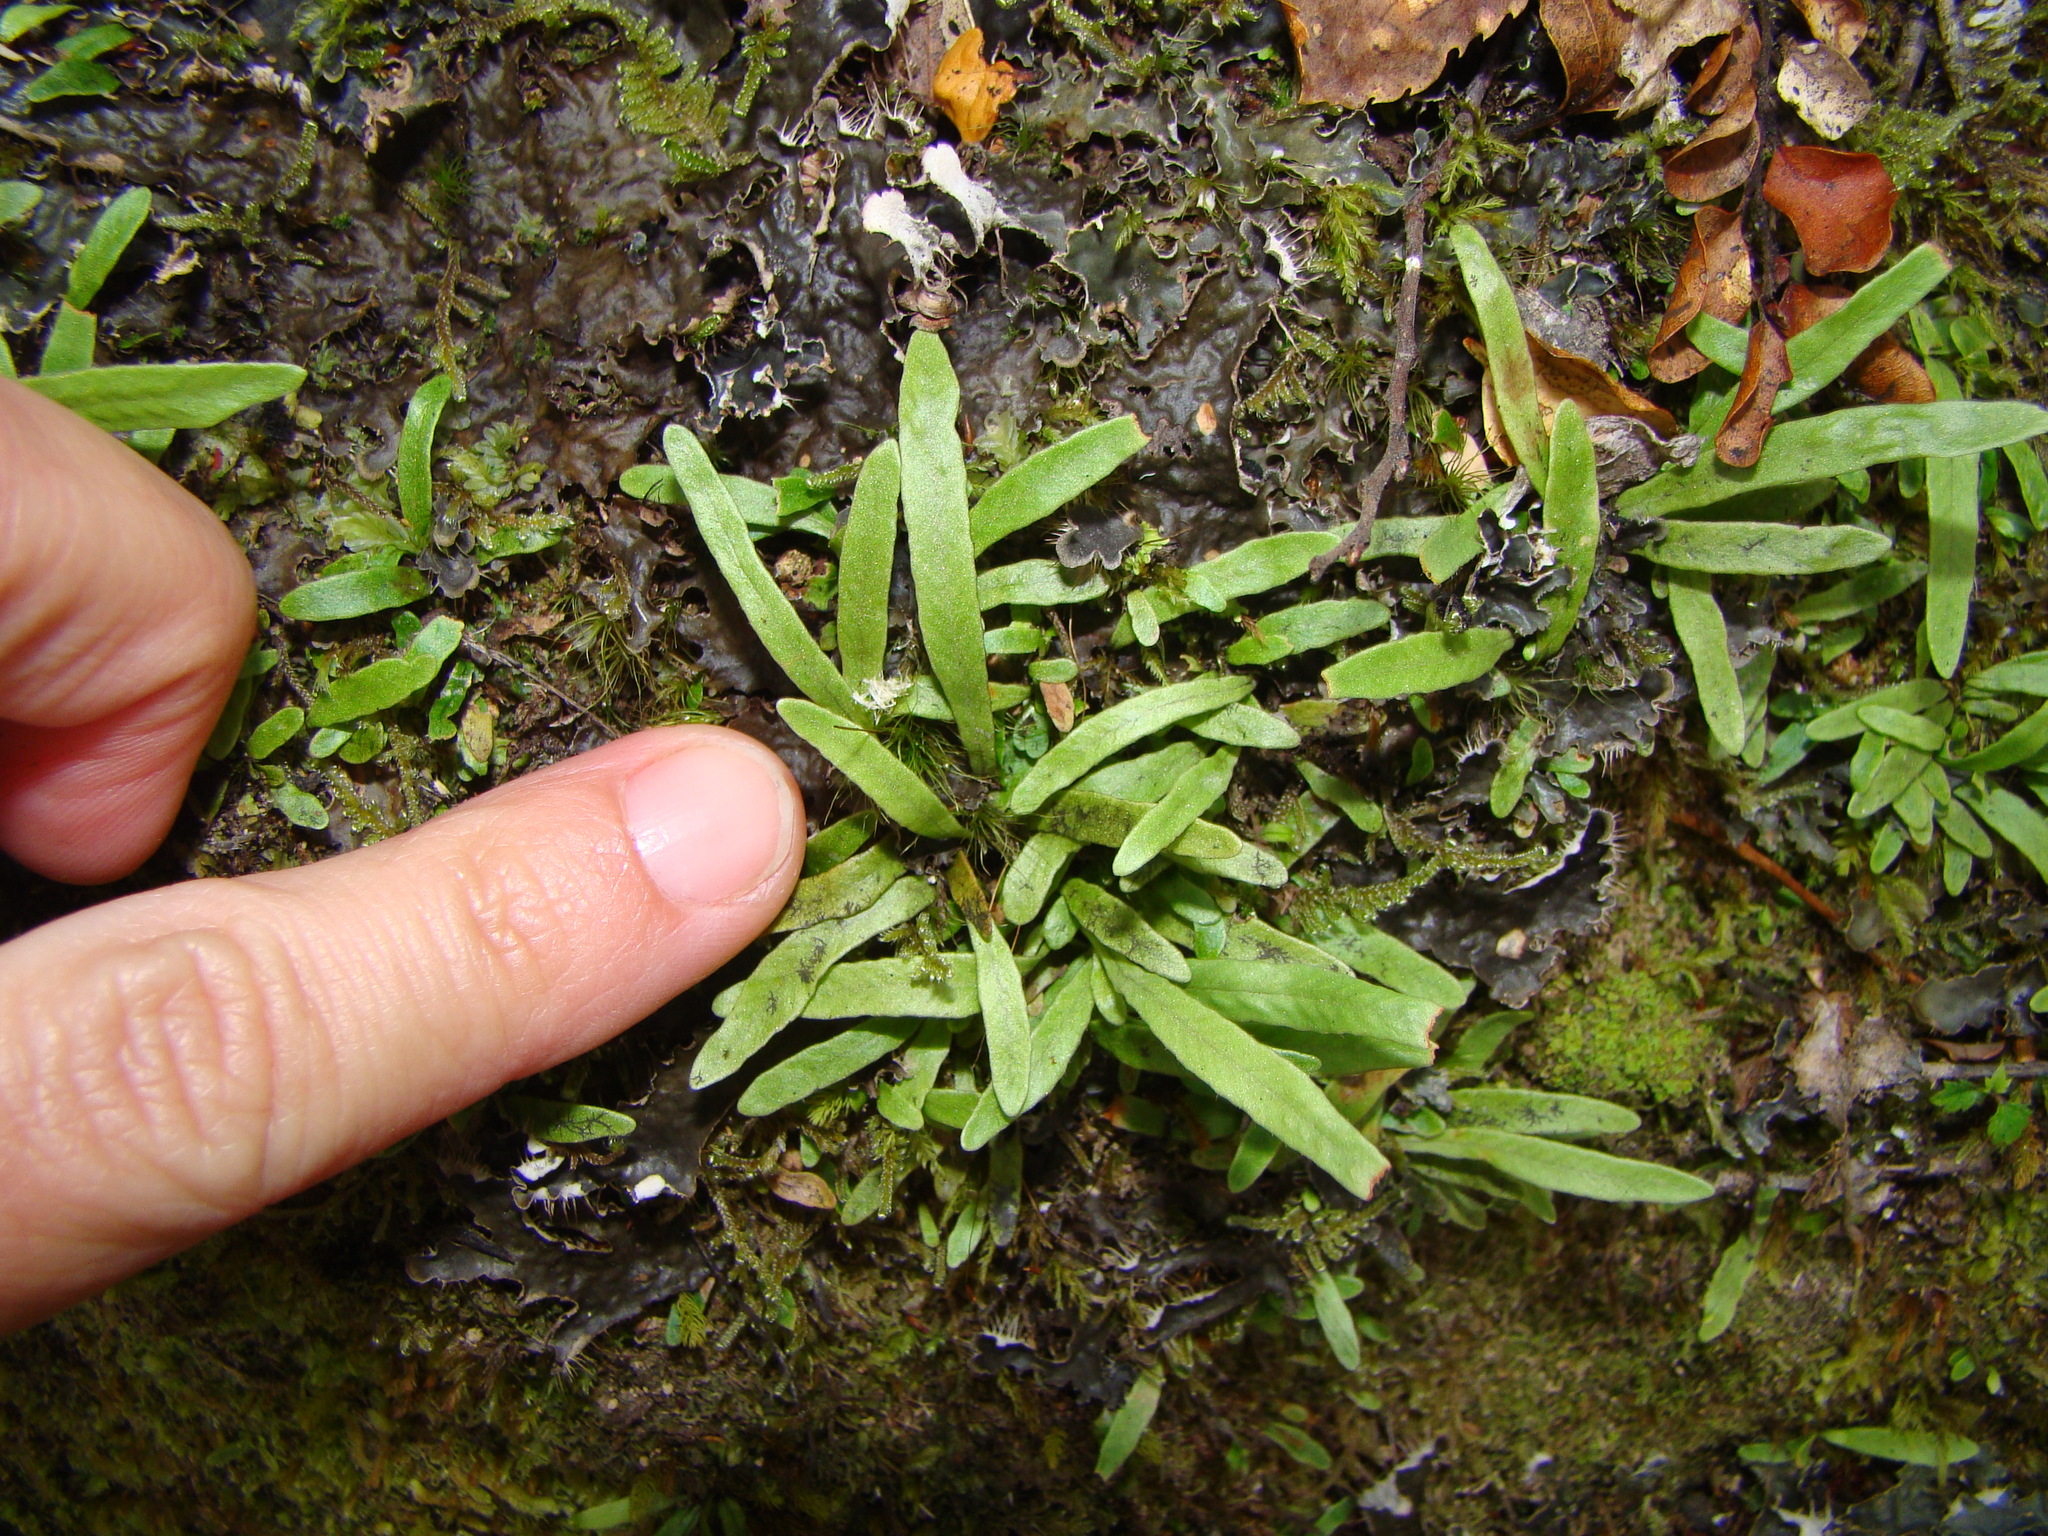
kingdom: Plantae
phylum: Tracheophyta
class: Polypodiopsida
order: Polypodiales
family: Polypodiaceae
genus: Notogrammitis
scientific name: Notogrammitis billardierei
